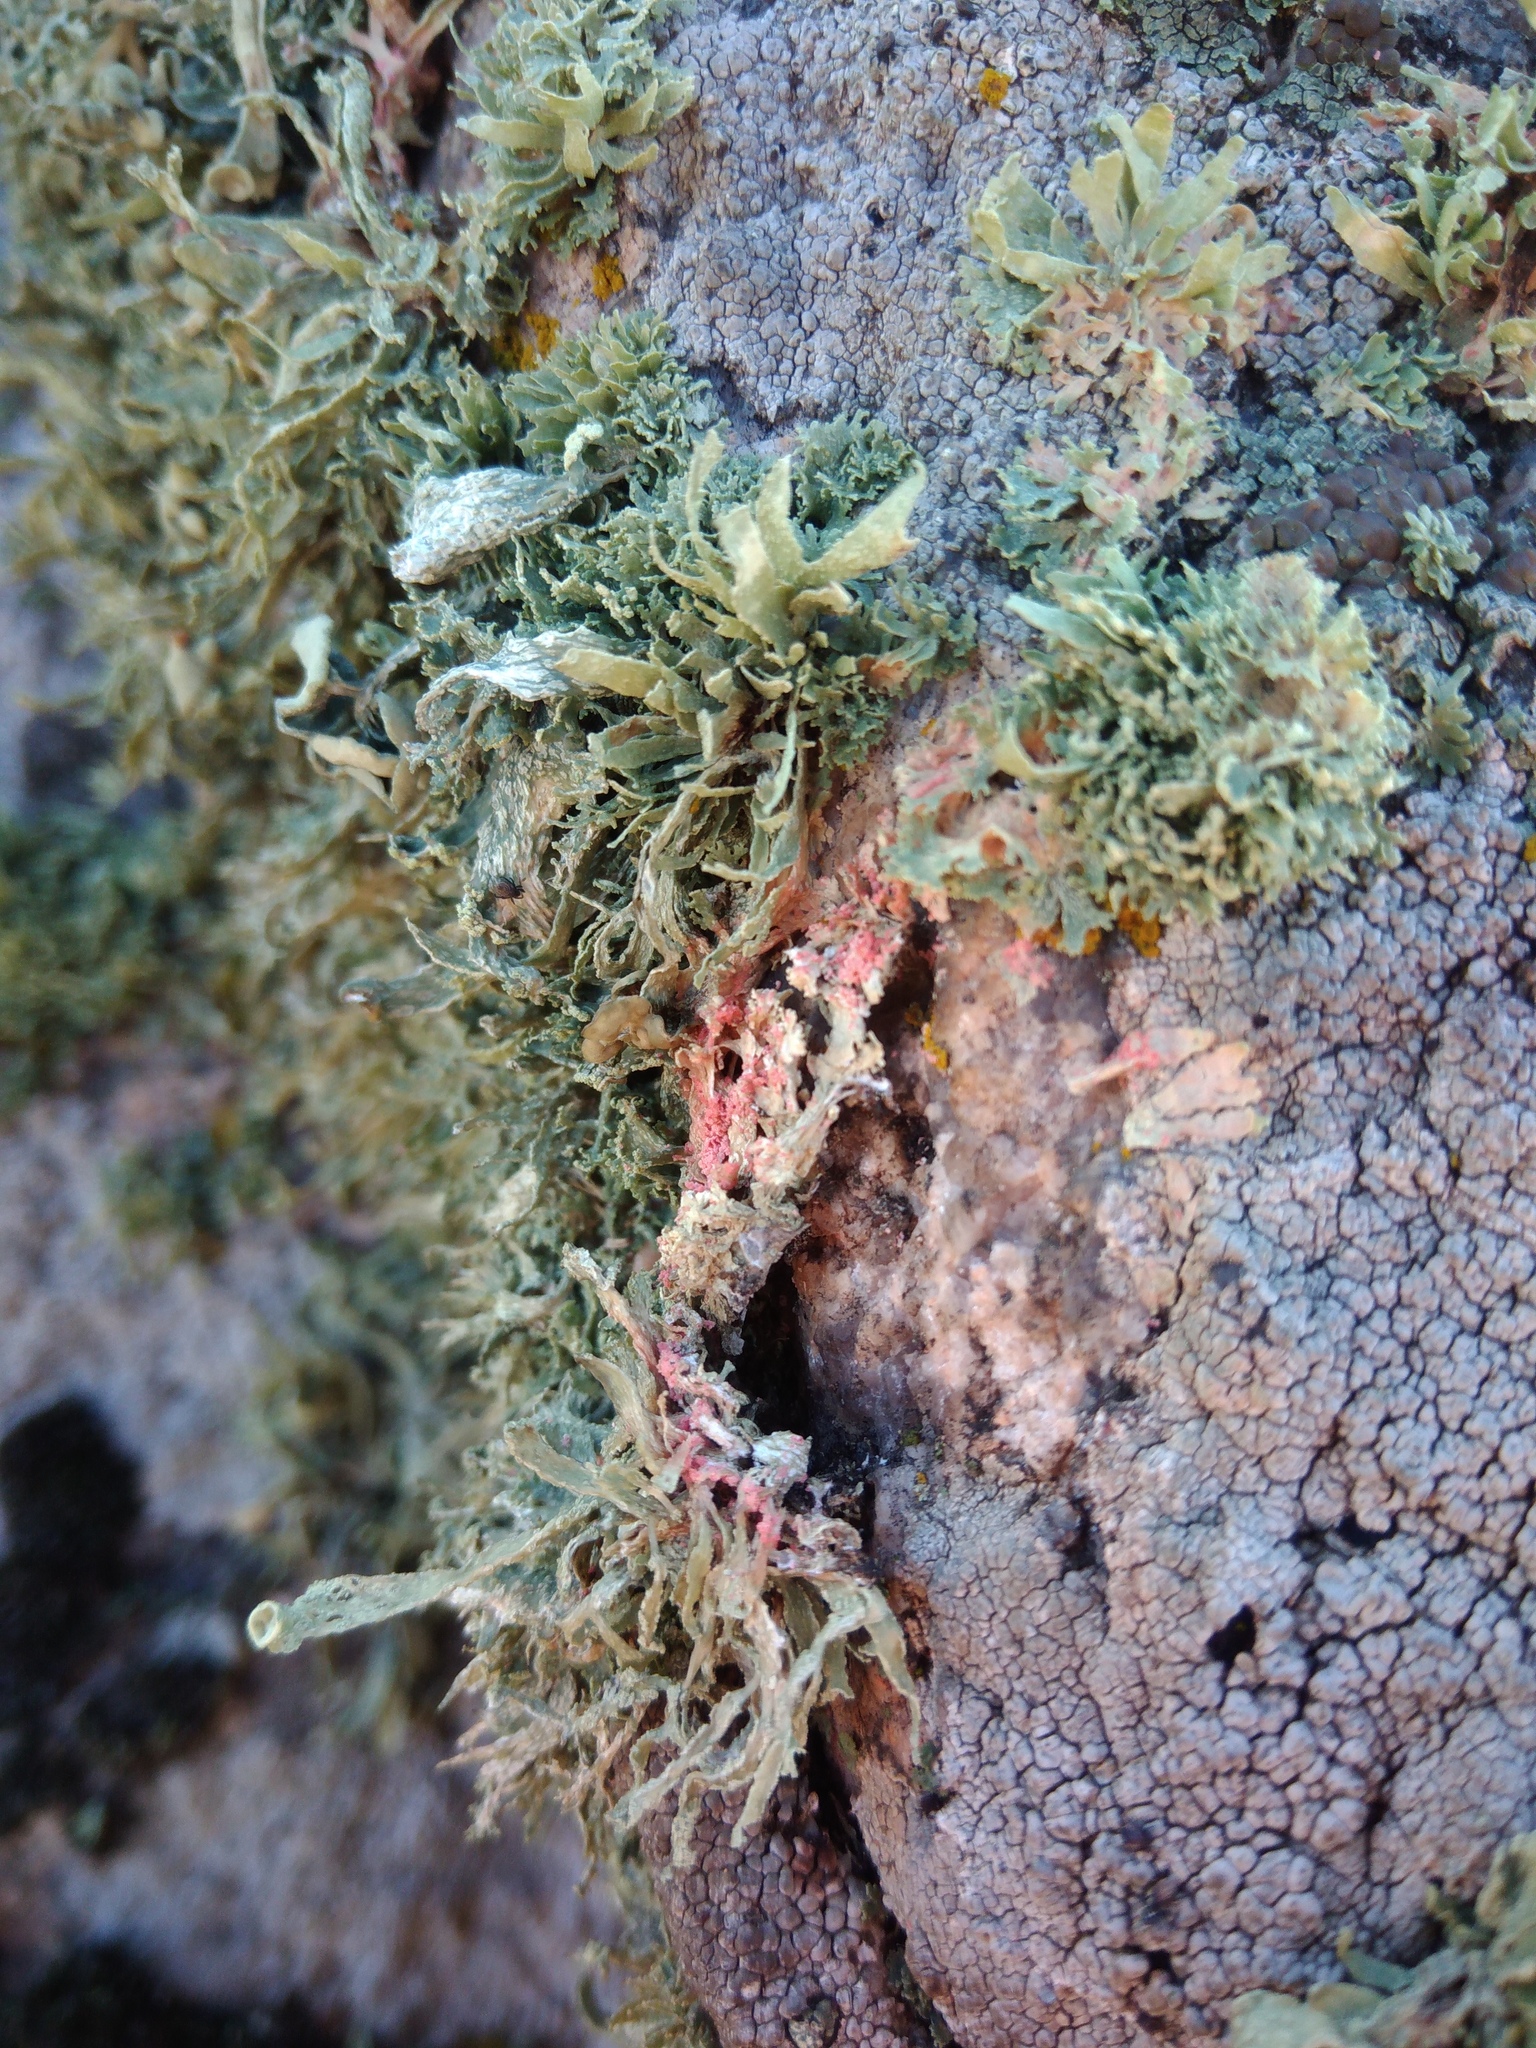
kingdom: Fungi
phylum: Basidiomycota
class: Agaricomycetes
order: Corticiales
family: Corticiaceae
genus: Marchandiomyces
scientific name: Marchandiomyces corallinus
